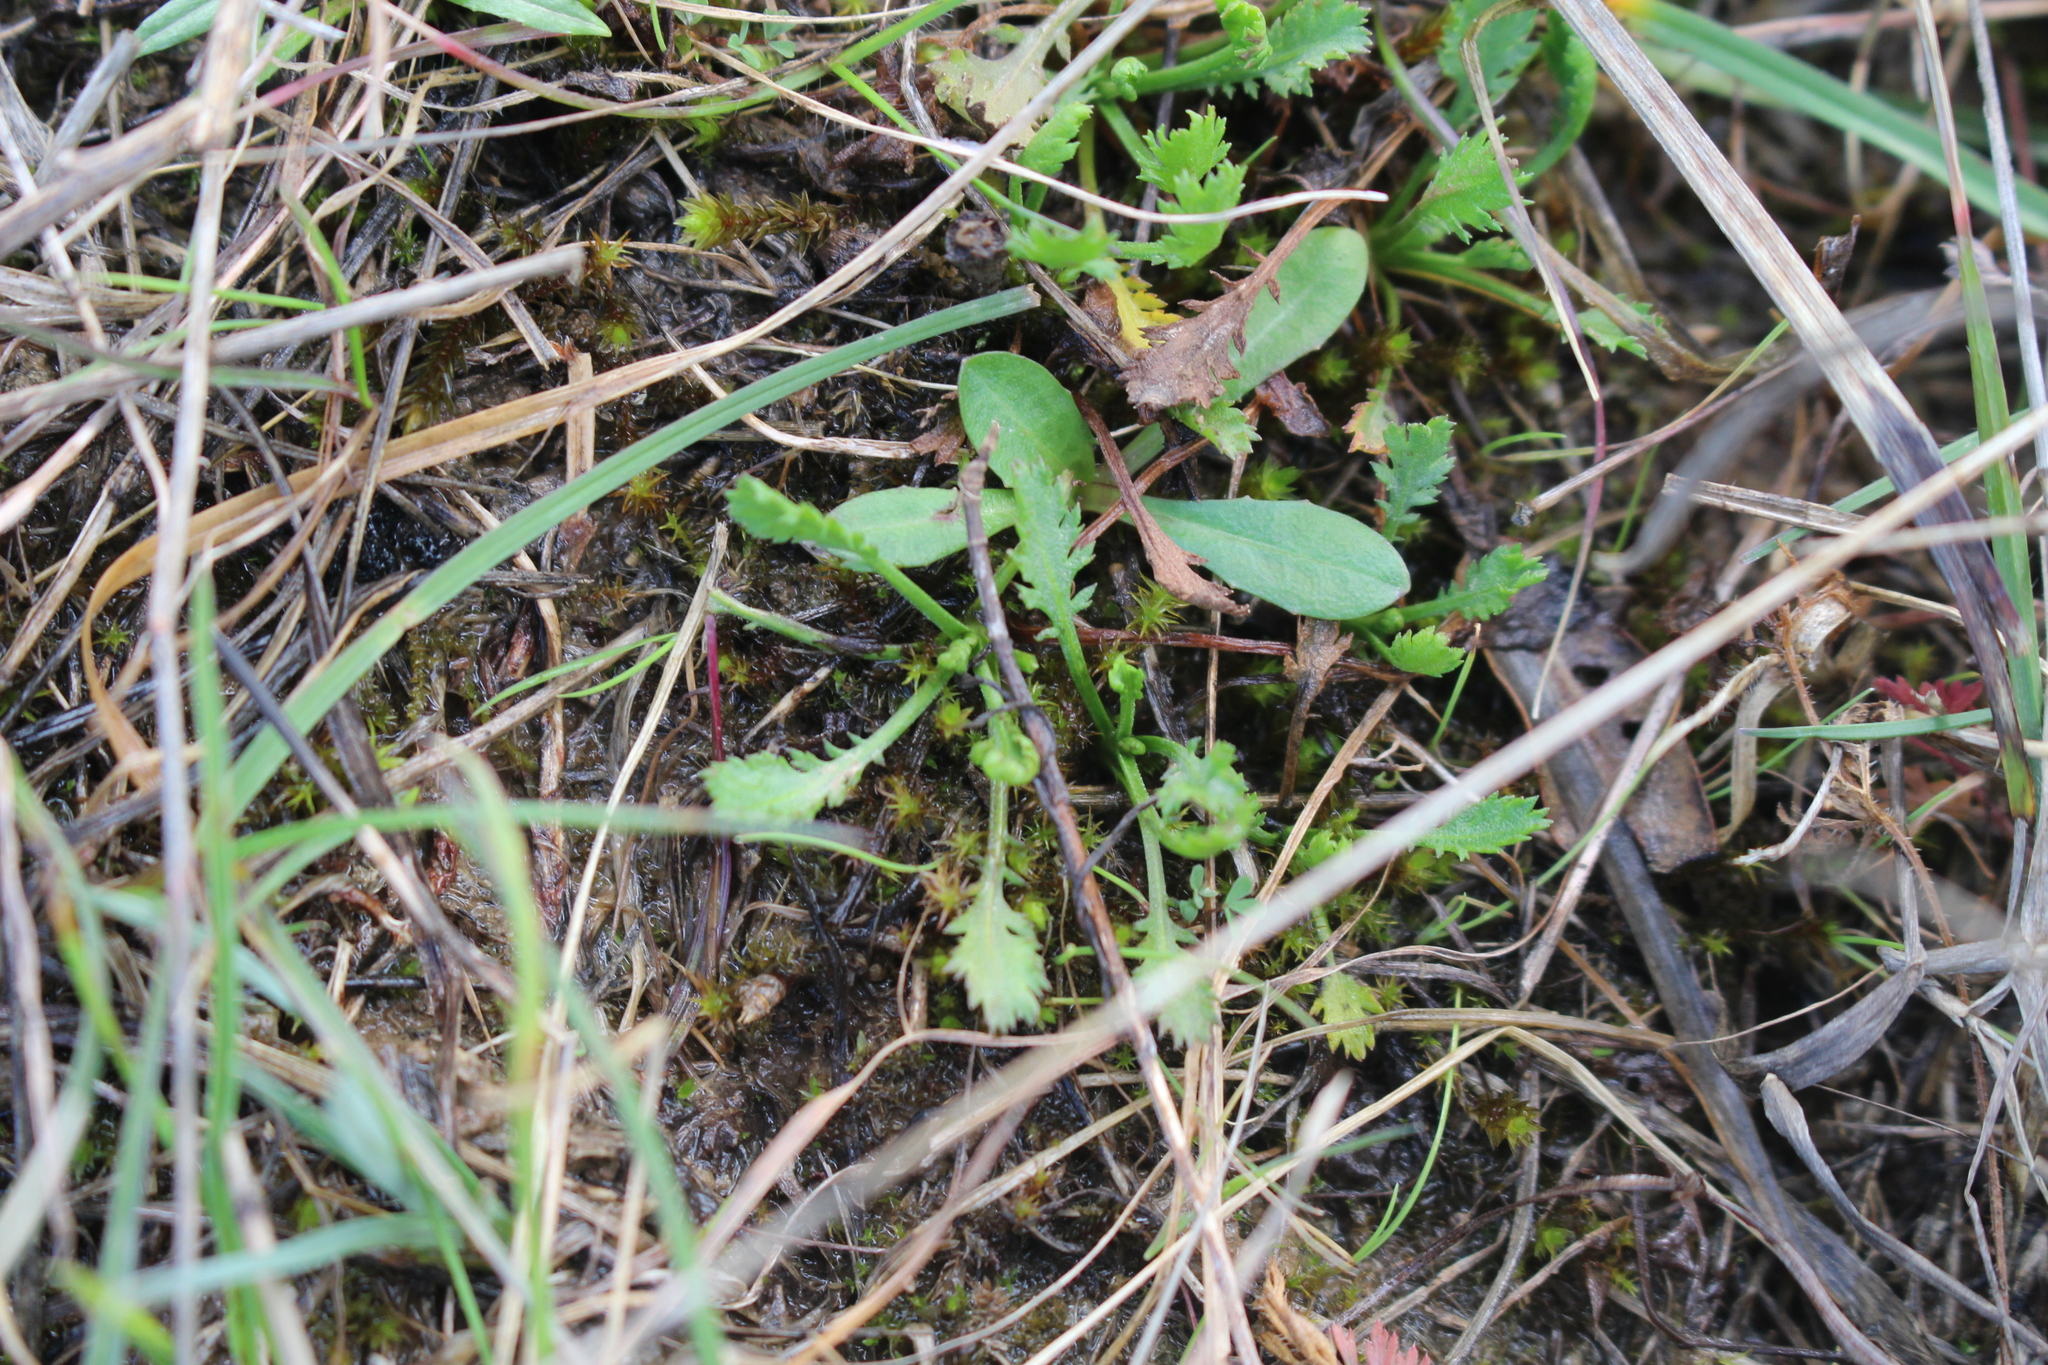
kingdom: Plantae
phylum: Tracheophyta
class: Magnoliopsida
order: Asterales
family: Asteraceae
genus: Achillea
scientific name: Achillea ageratum
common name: Sweet-nancy
